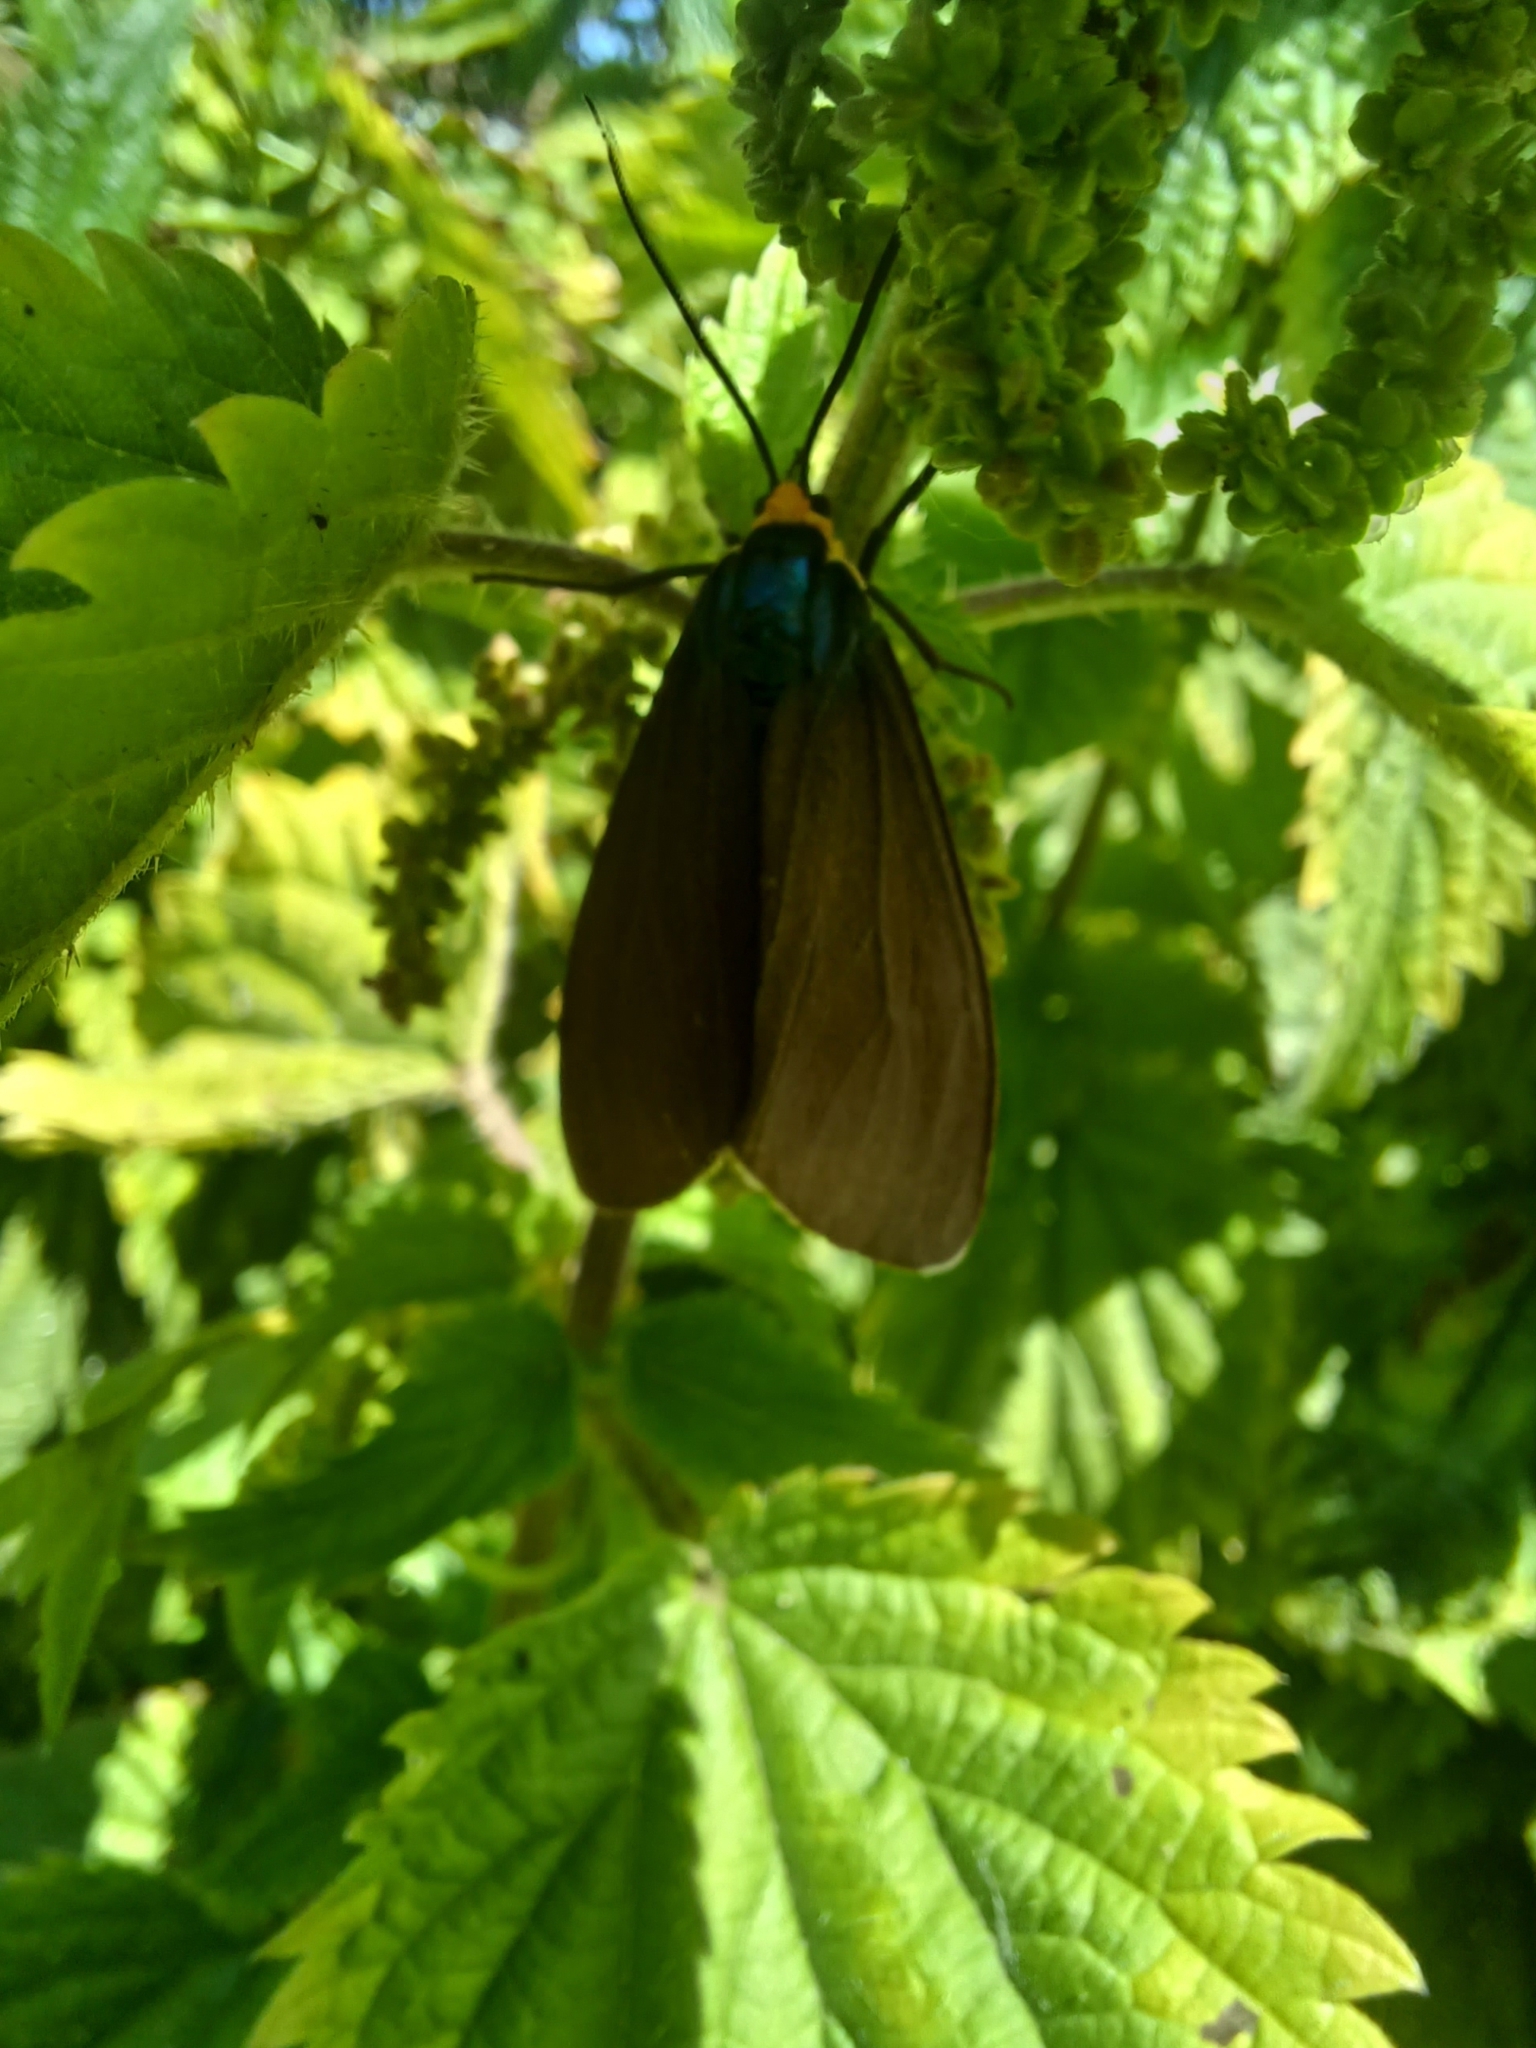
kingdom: Animalia
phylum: Arthropoda
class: Insecta
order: Lepidoptera
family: Erebidae
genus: Ctenucha
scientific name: Ctenucha virginica
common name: Virginia ctenucha moth
